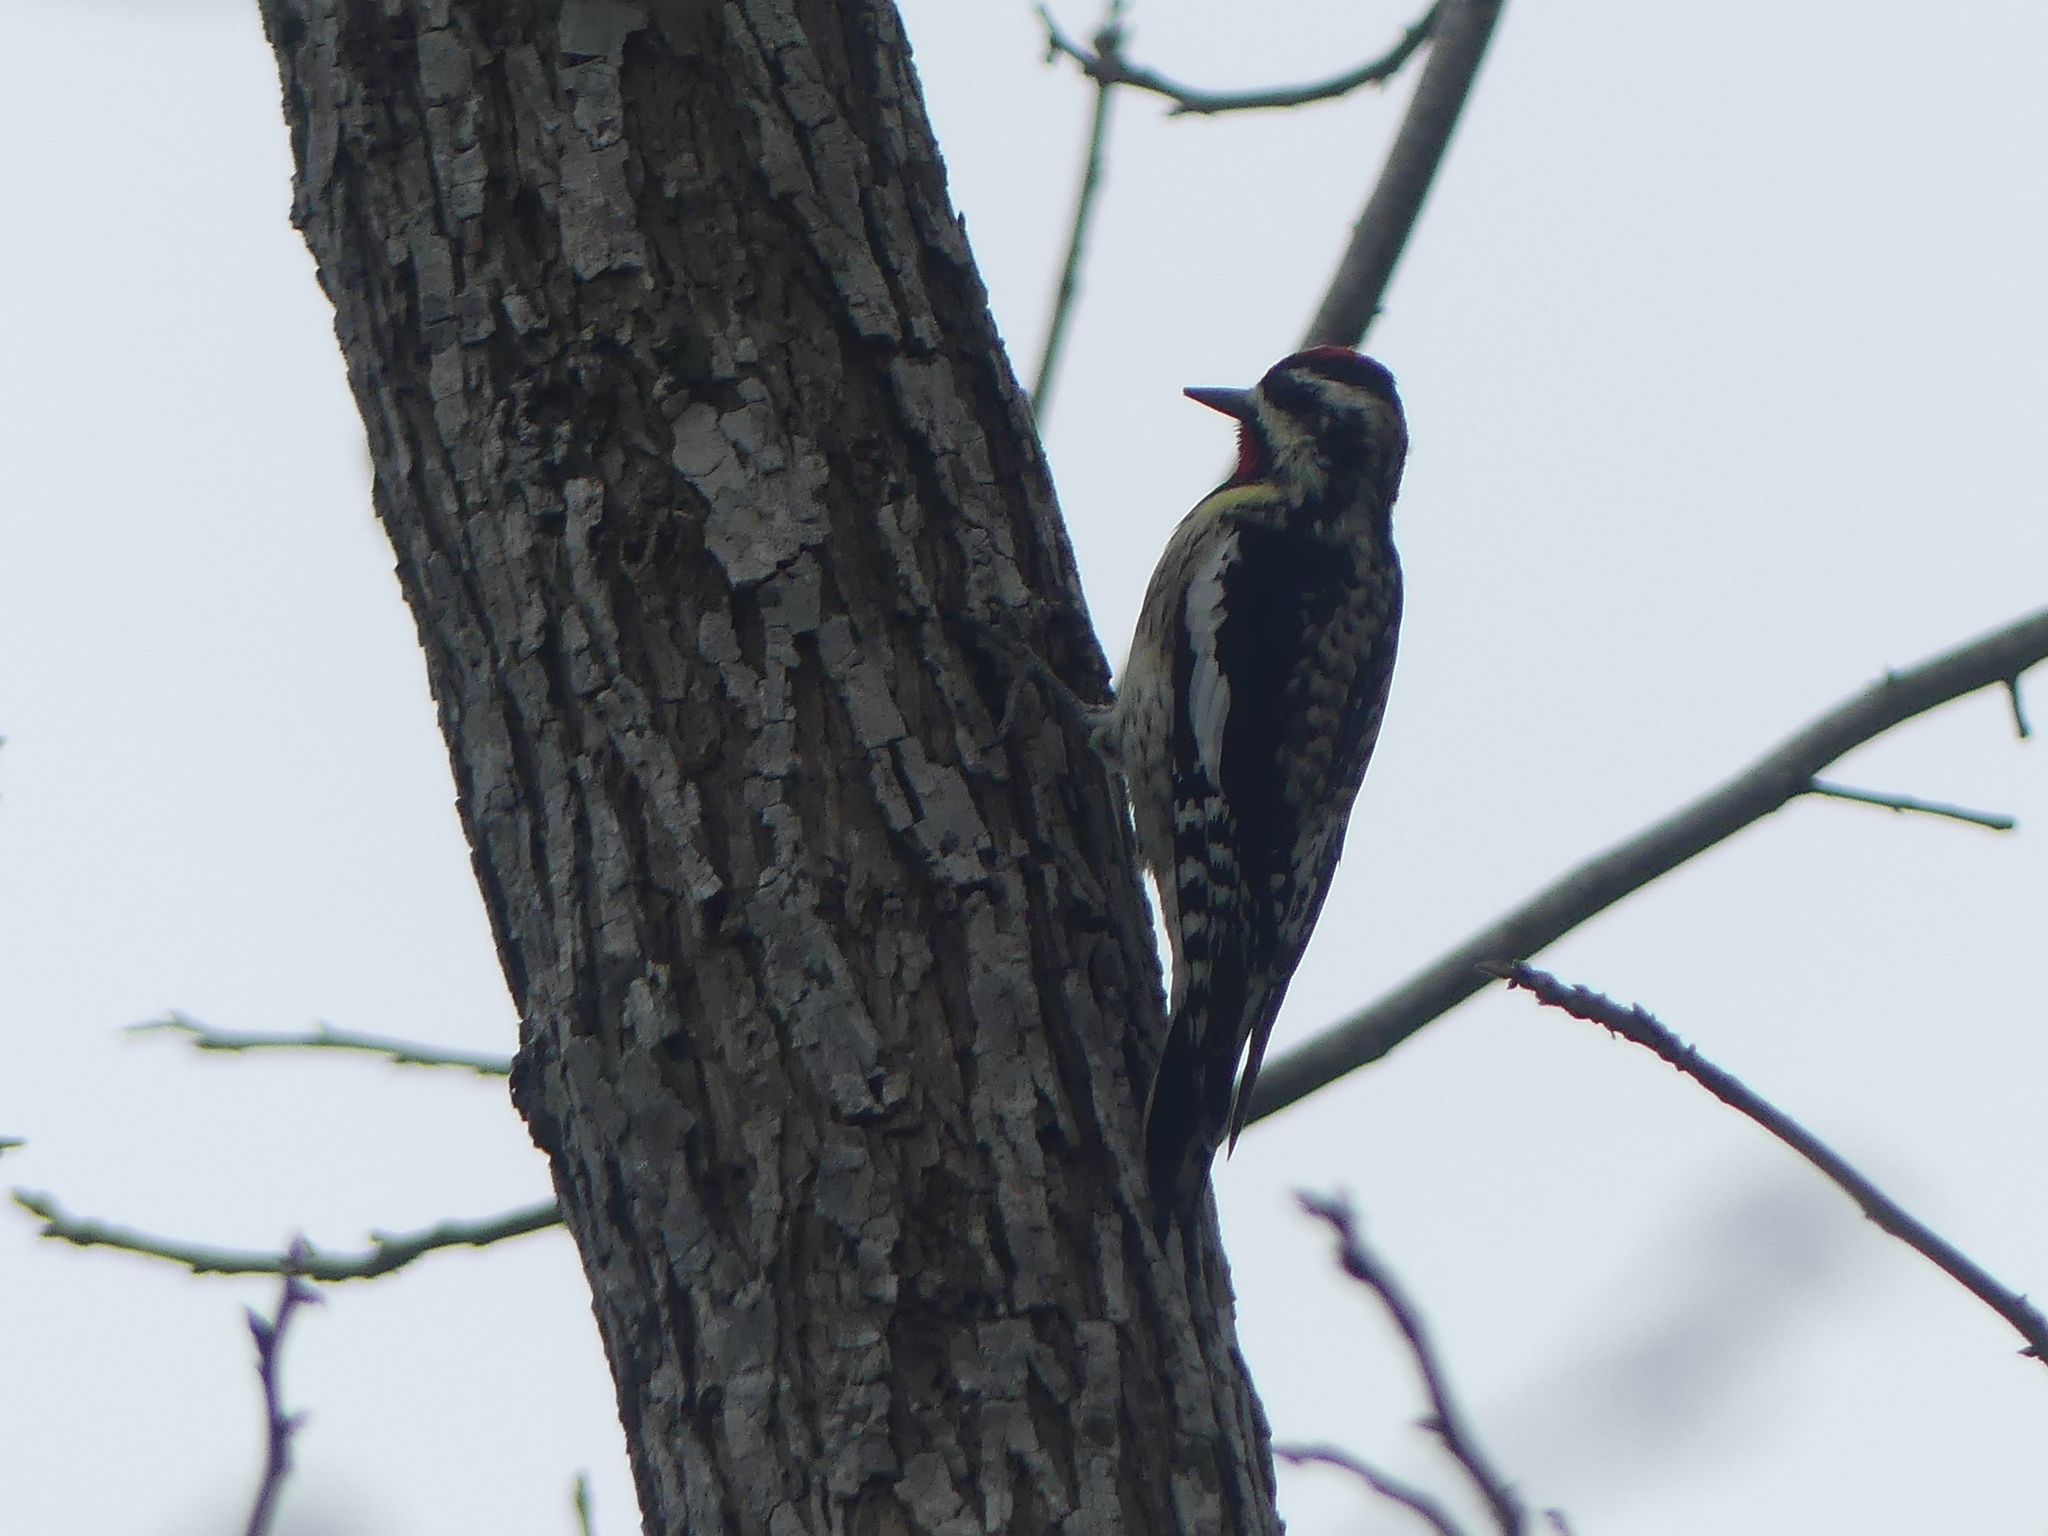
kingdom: Animalia
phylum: Chordata
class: Aves
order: Piciformes
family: Picidae
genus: Sphyrapicus
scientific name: Sphyrapicus varius
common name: Yellow-bellied sapsucker
